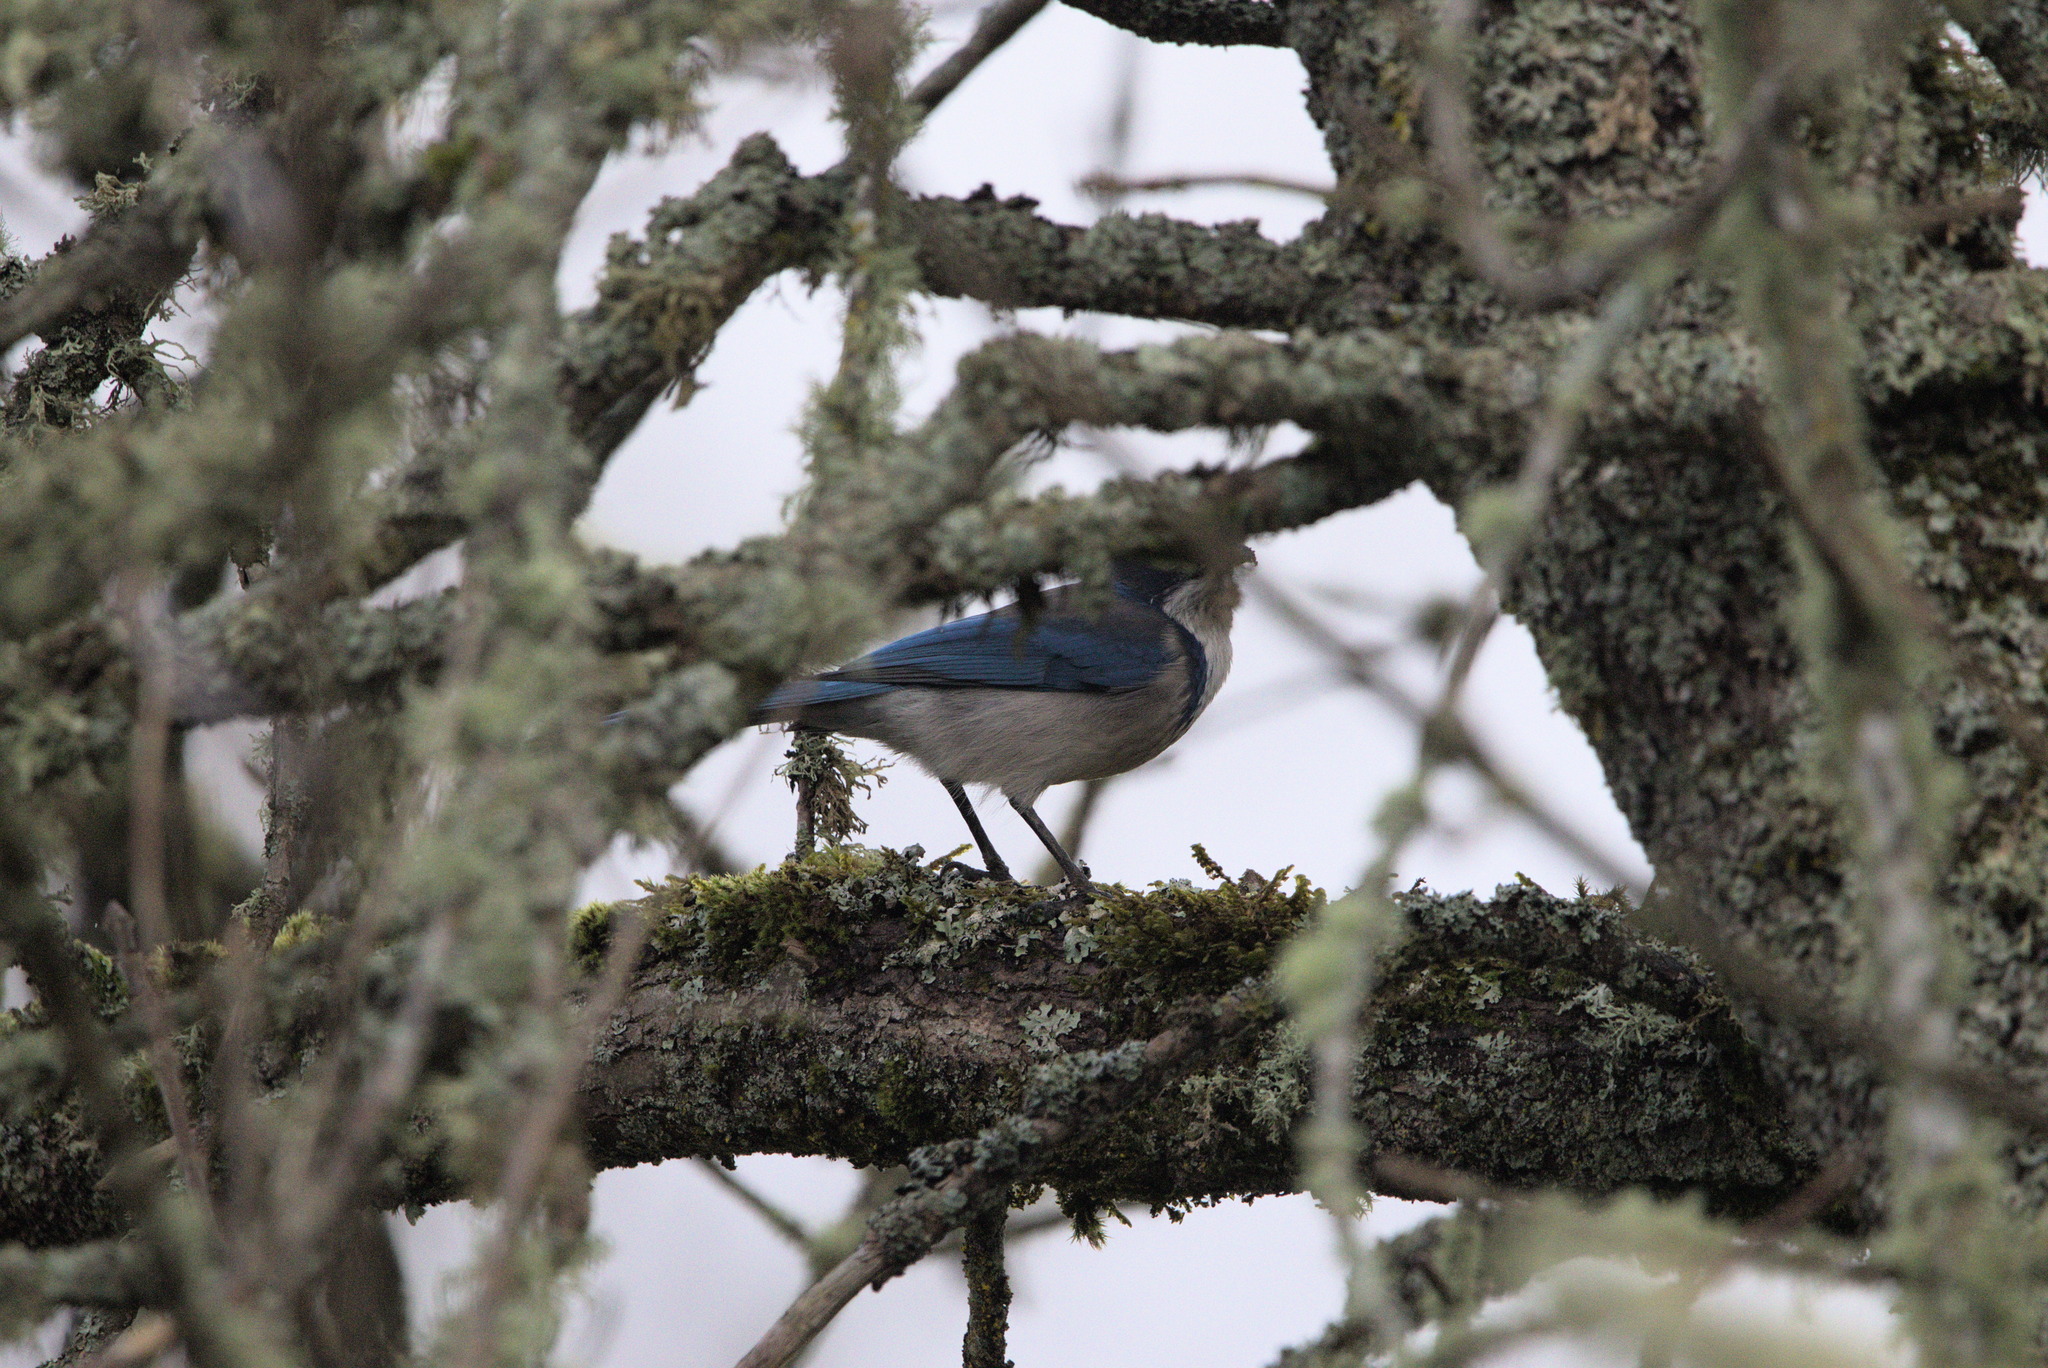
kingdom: Animalia
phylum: Chordata
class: Aves
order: Passeriformes
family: Corvidae
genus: Aphelocoma
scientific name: Aphelocoma californica
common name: California scrub-jay
